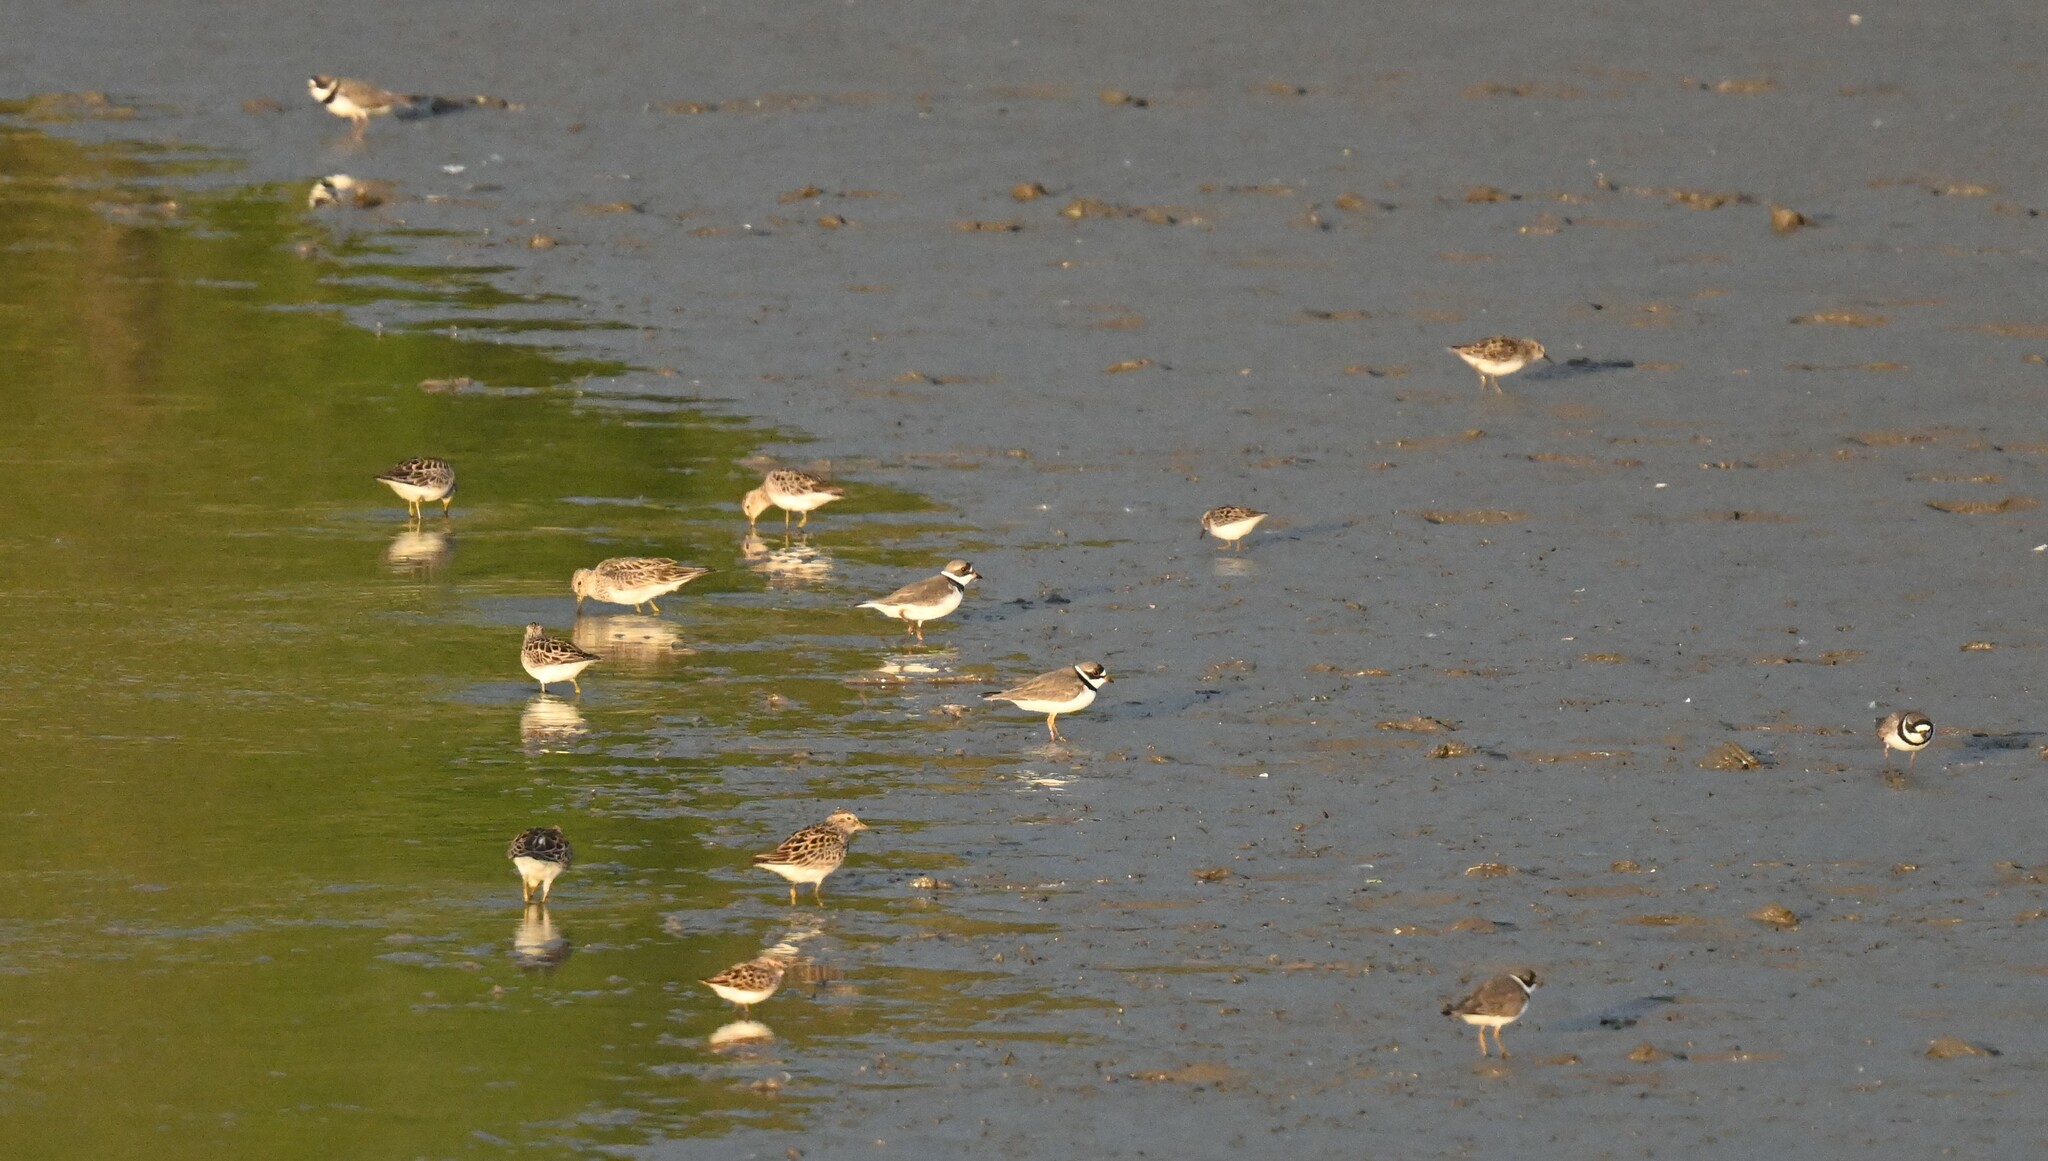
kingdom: Animalia
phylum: Chordata
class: Aves
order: Charadriiformes
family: Charadriidae
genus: Charadrius
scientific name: Charadrius semipalmatus
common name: Semipalmated plover
